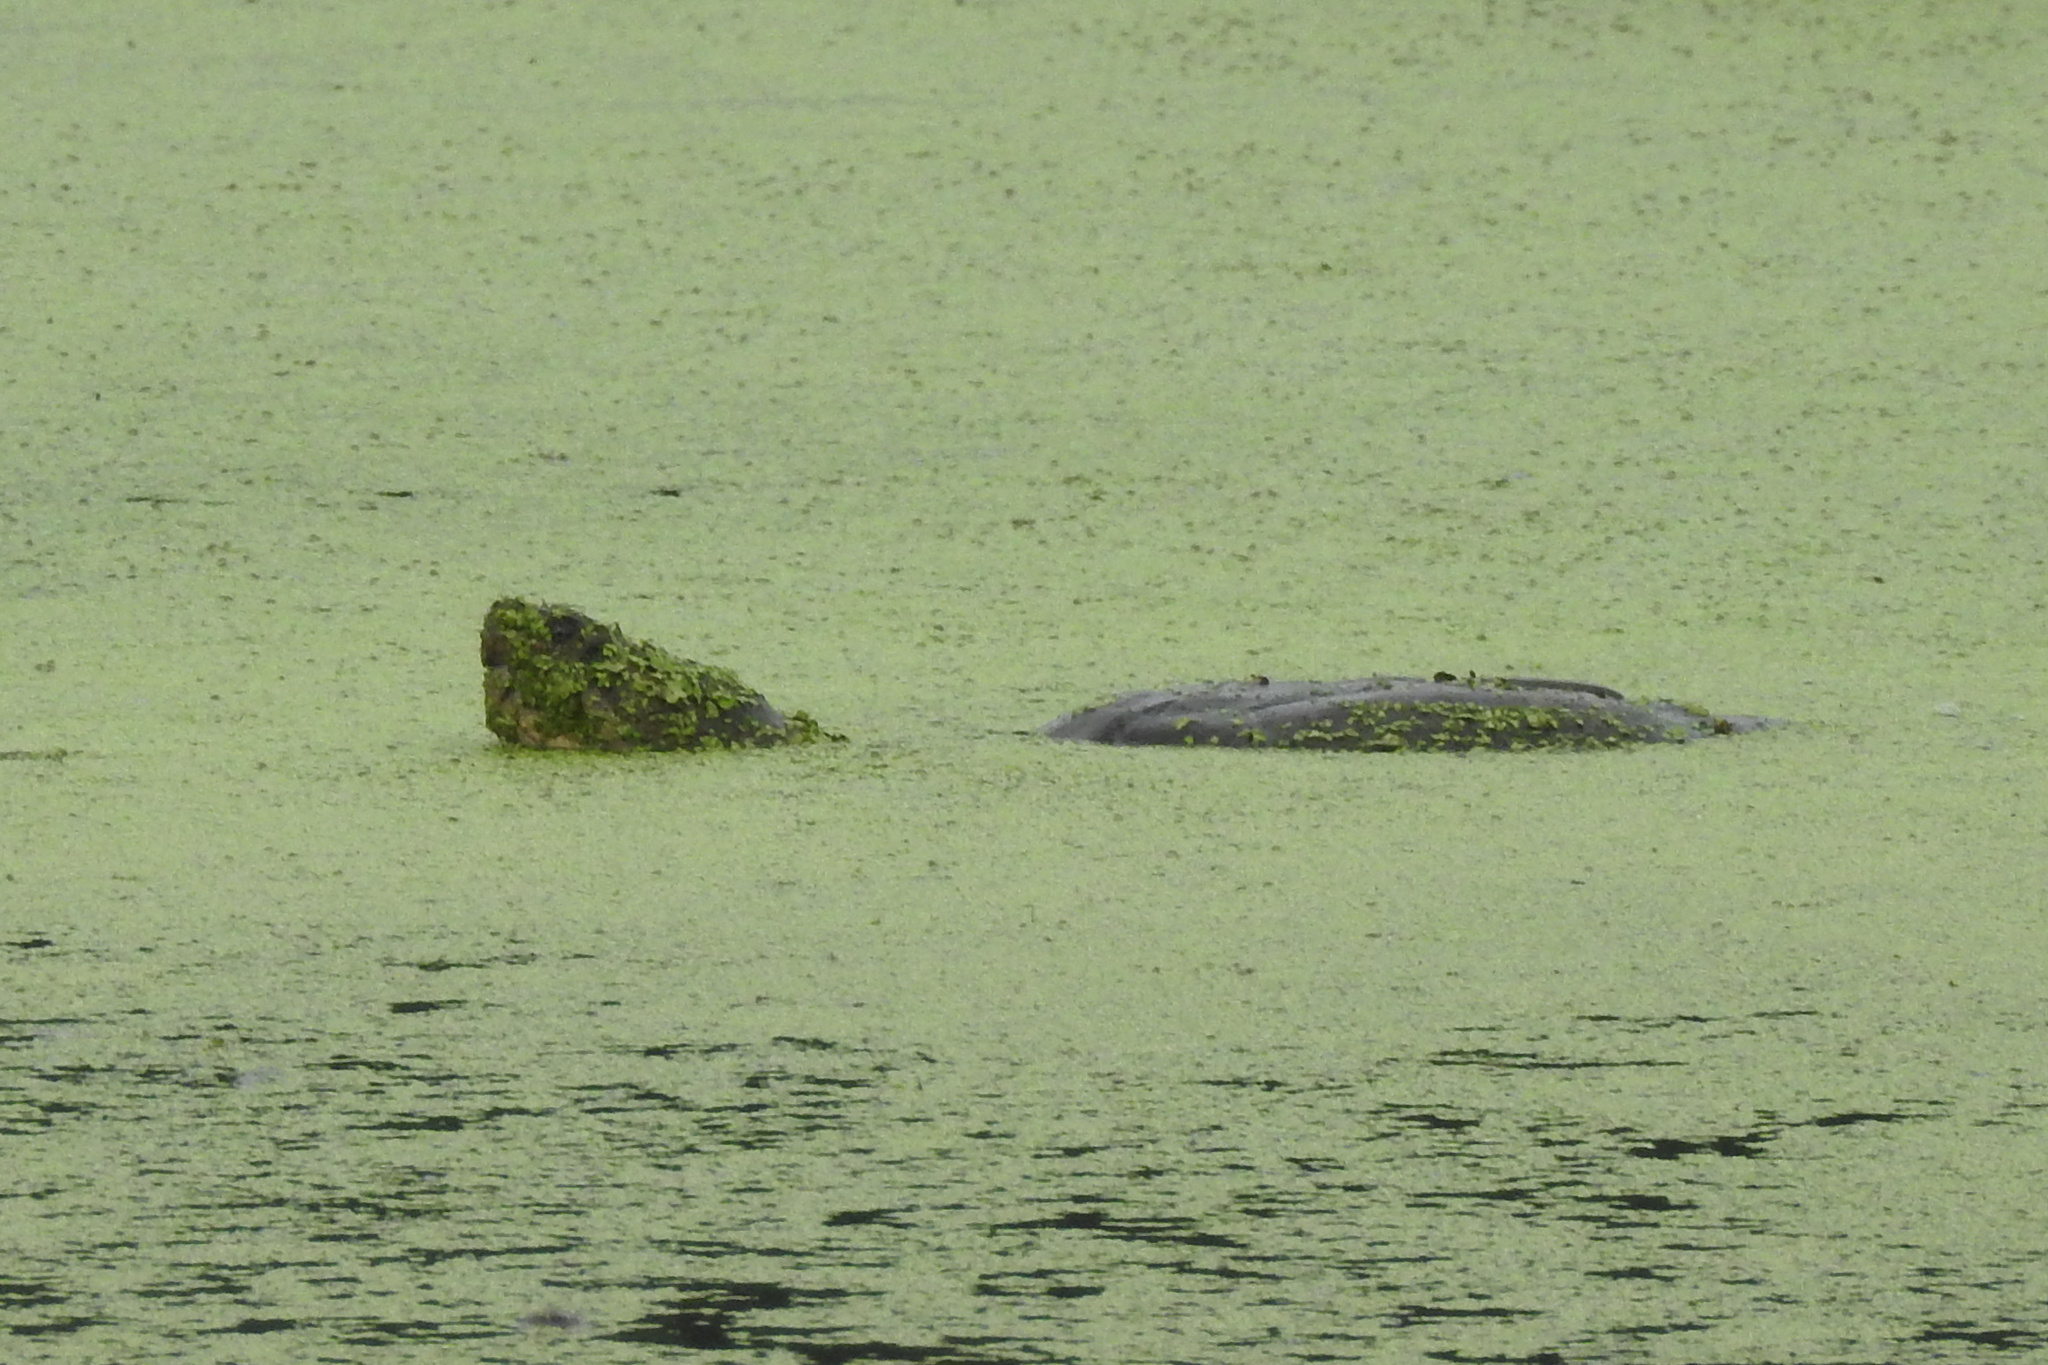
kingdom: Animalia
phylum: Chordata
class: Testudines
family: Chelydridae
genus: Chelydra
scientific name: Chelydra serpentina
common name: Common snapping turtle
